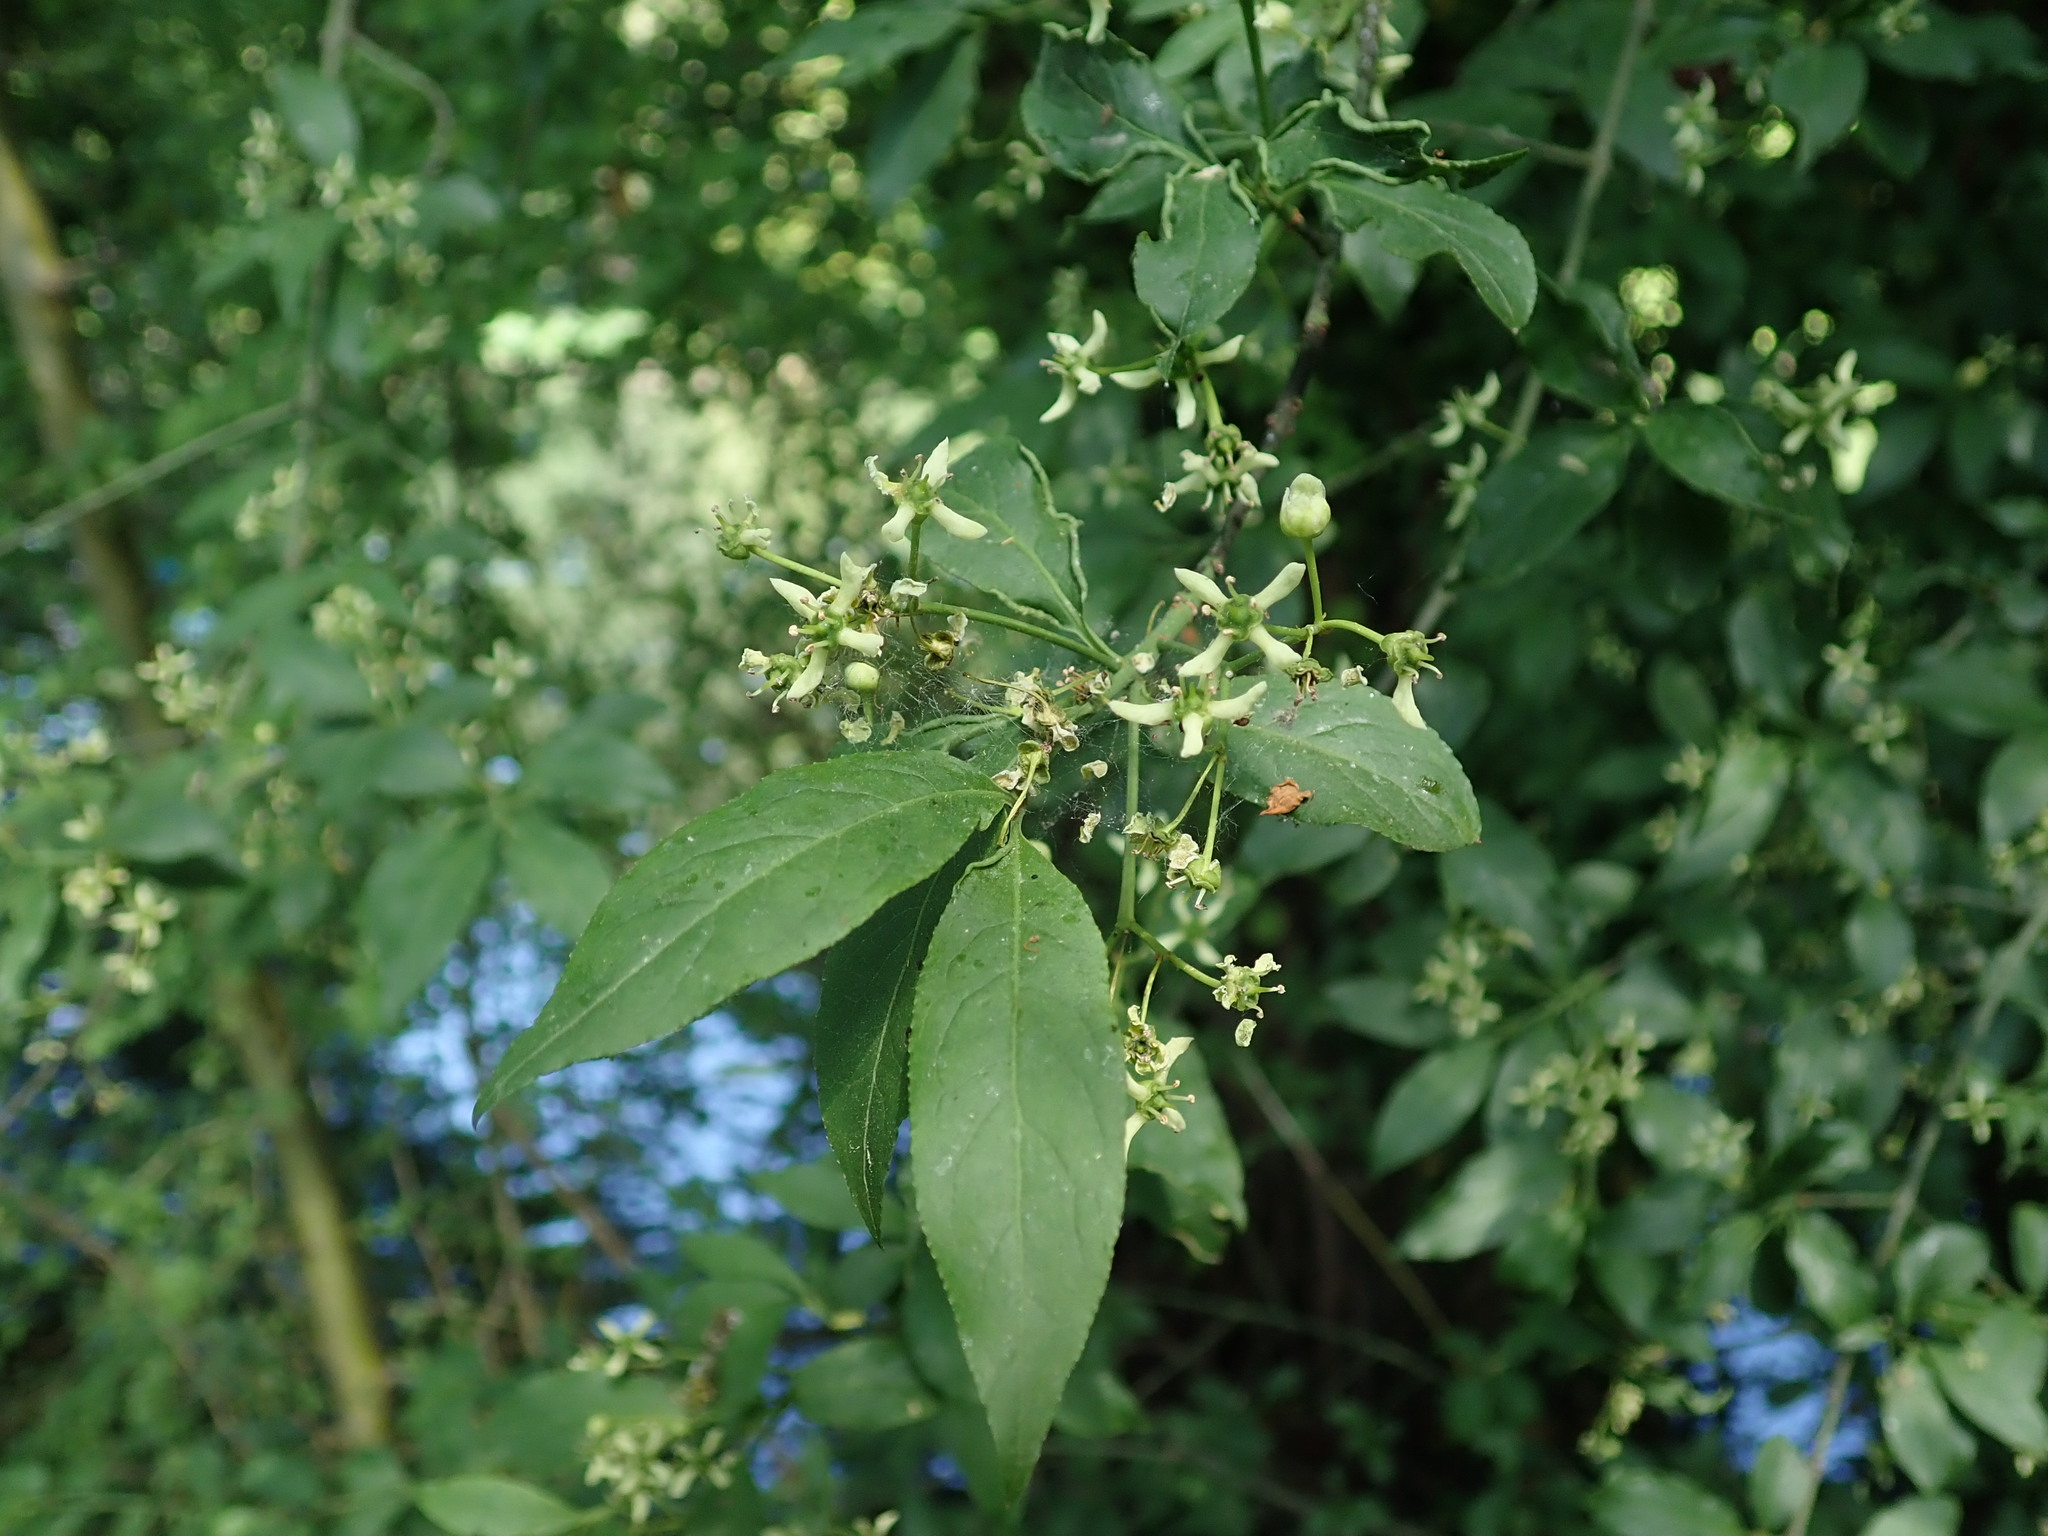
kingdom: Plantae
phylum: Tracheophyta
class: Magnoliopsida
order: Celastrales
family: Celastraceae
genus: Euonymus
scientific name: Euonymus europaeus
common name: Spindle
